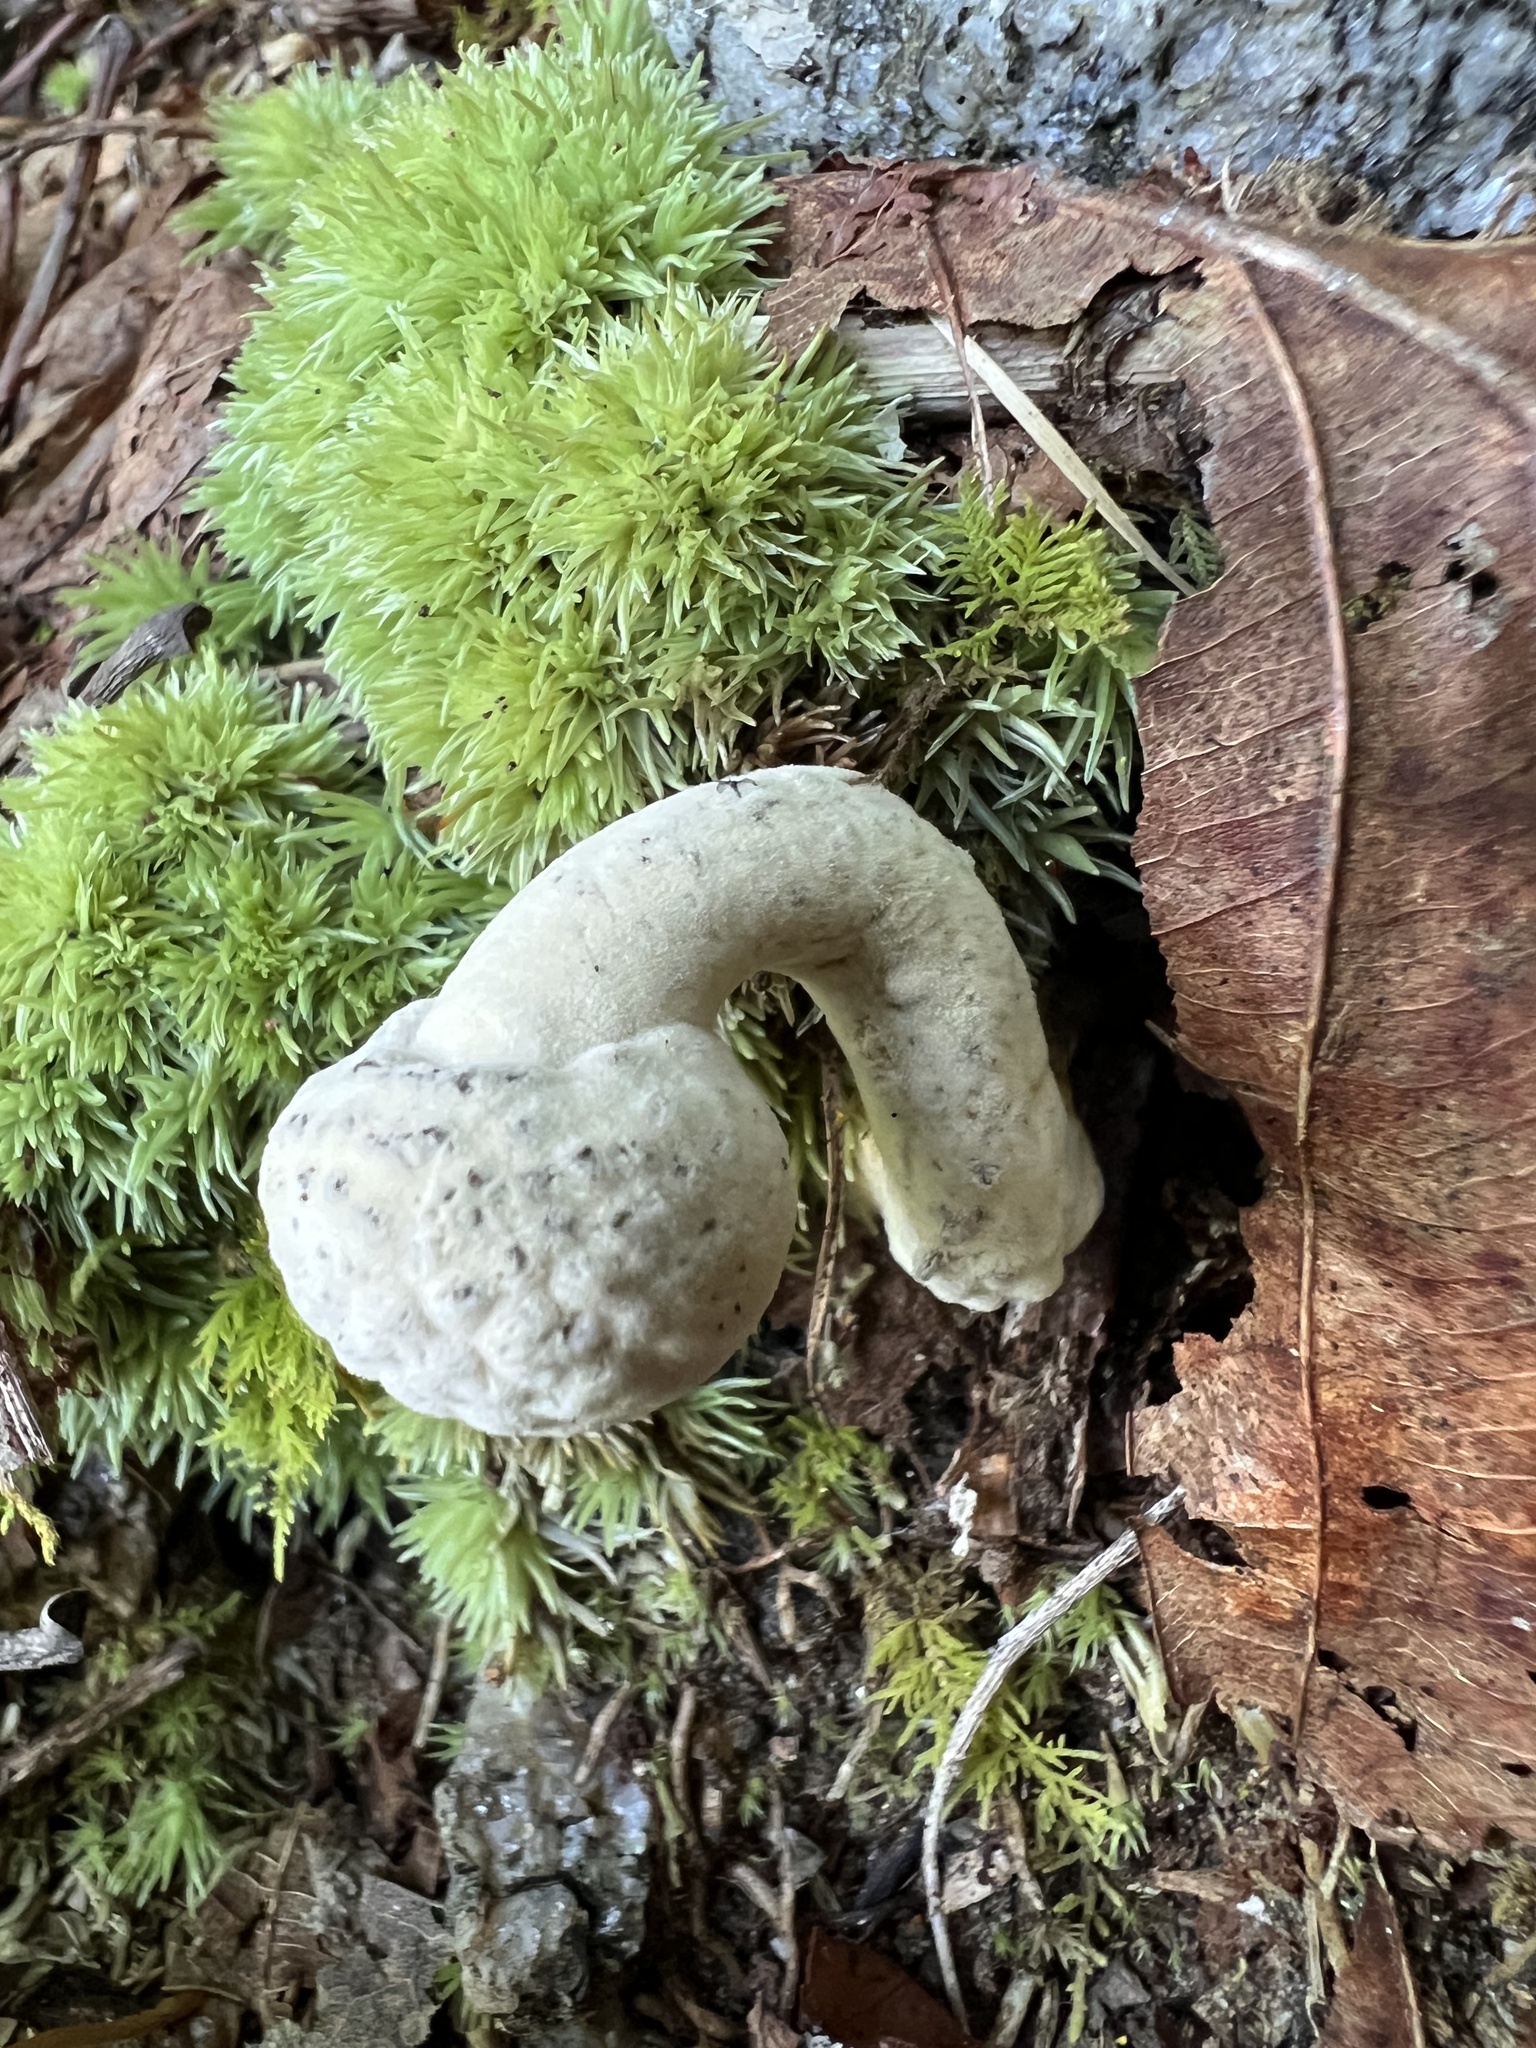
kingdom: Fungi
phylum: Ascomycota
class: Sordariomycetes
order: Hypocreales
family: Hypocreaceae
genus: Hypomyces
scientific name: Hypomyces chrysospermus
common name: Bolete mould
